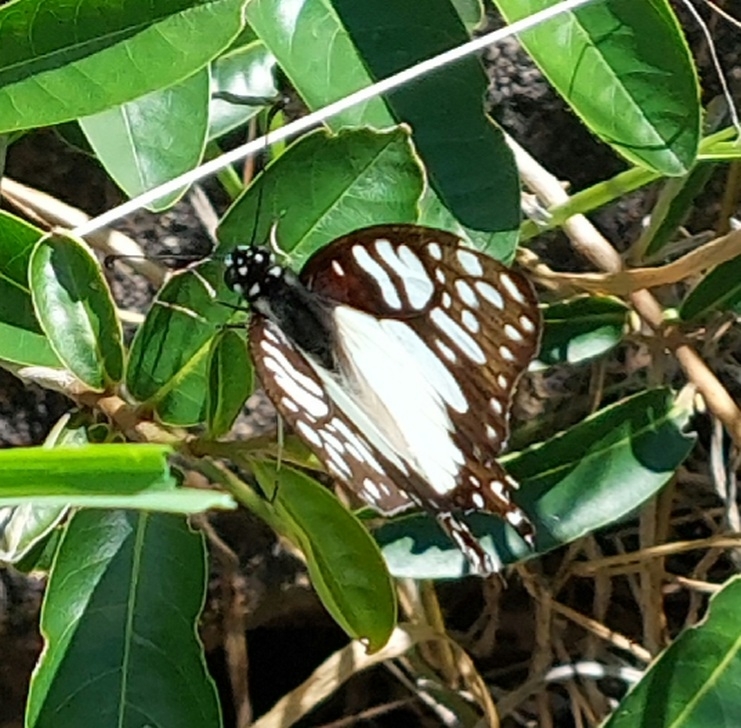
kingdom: Animalia
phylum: Arthropoda
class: Insecta
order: Lepidoptera
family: Papilionidae
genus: Graphium
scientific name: Graphium angolanus
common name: Angola white-lady swordtail
